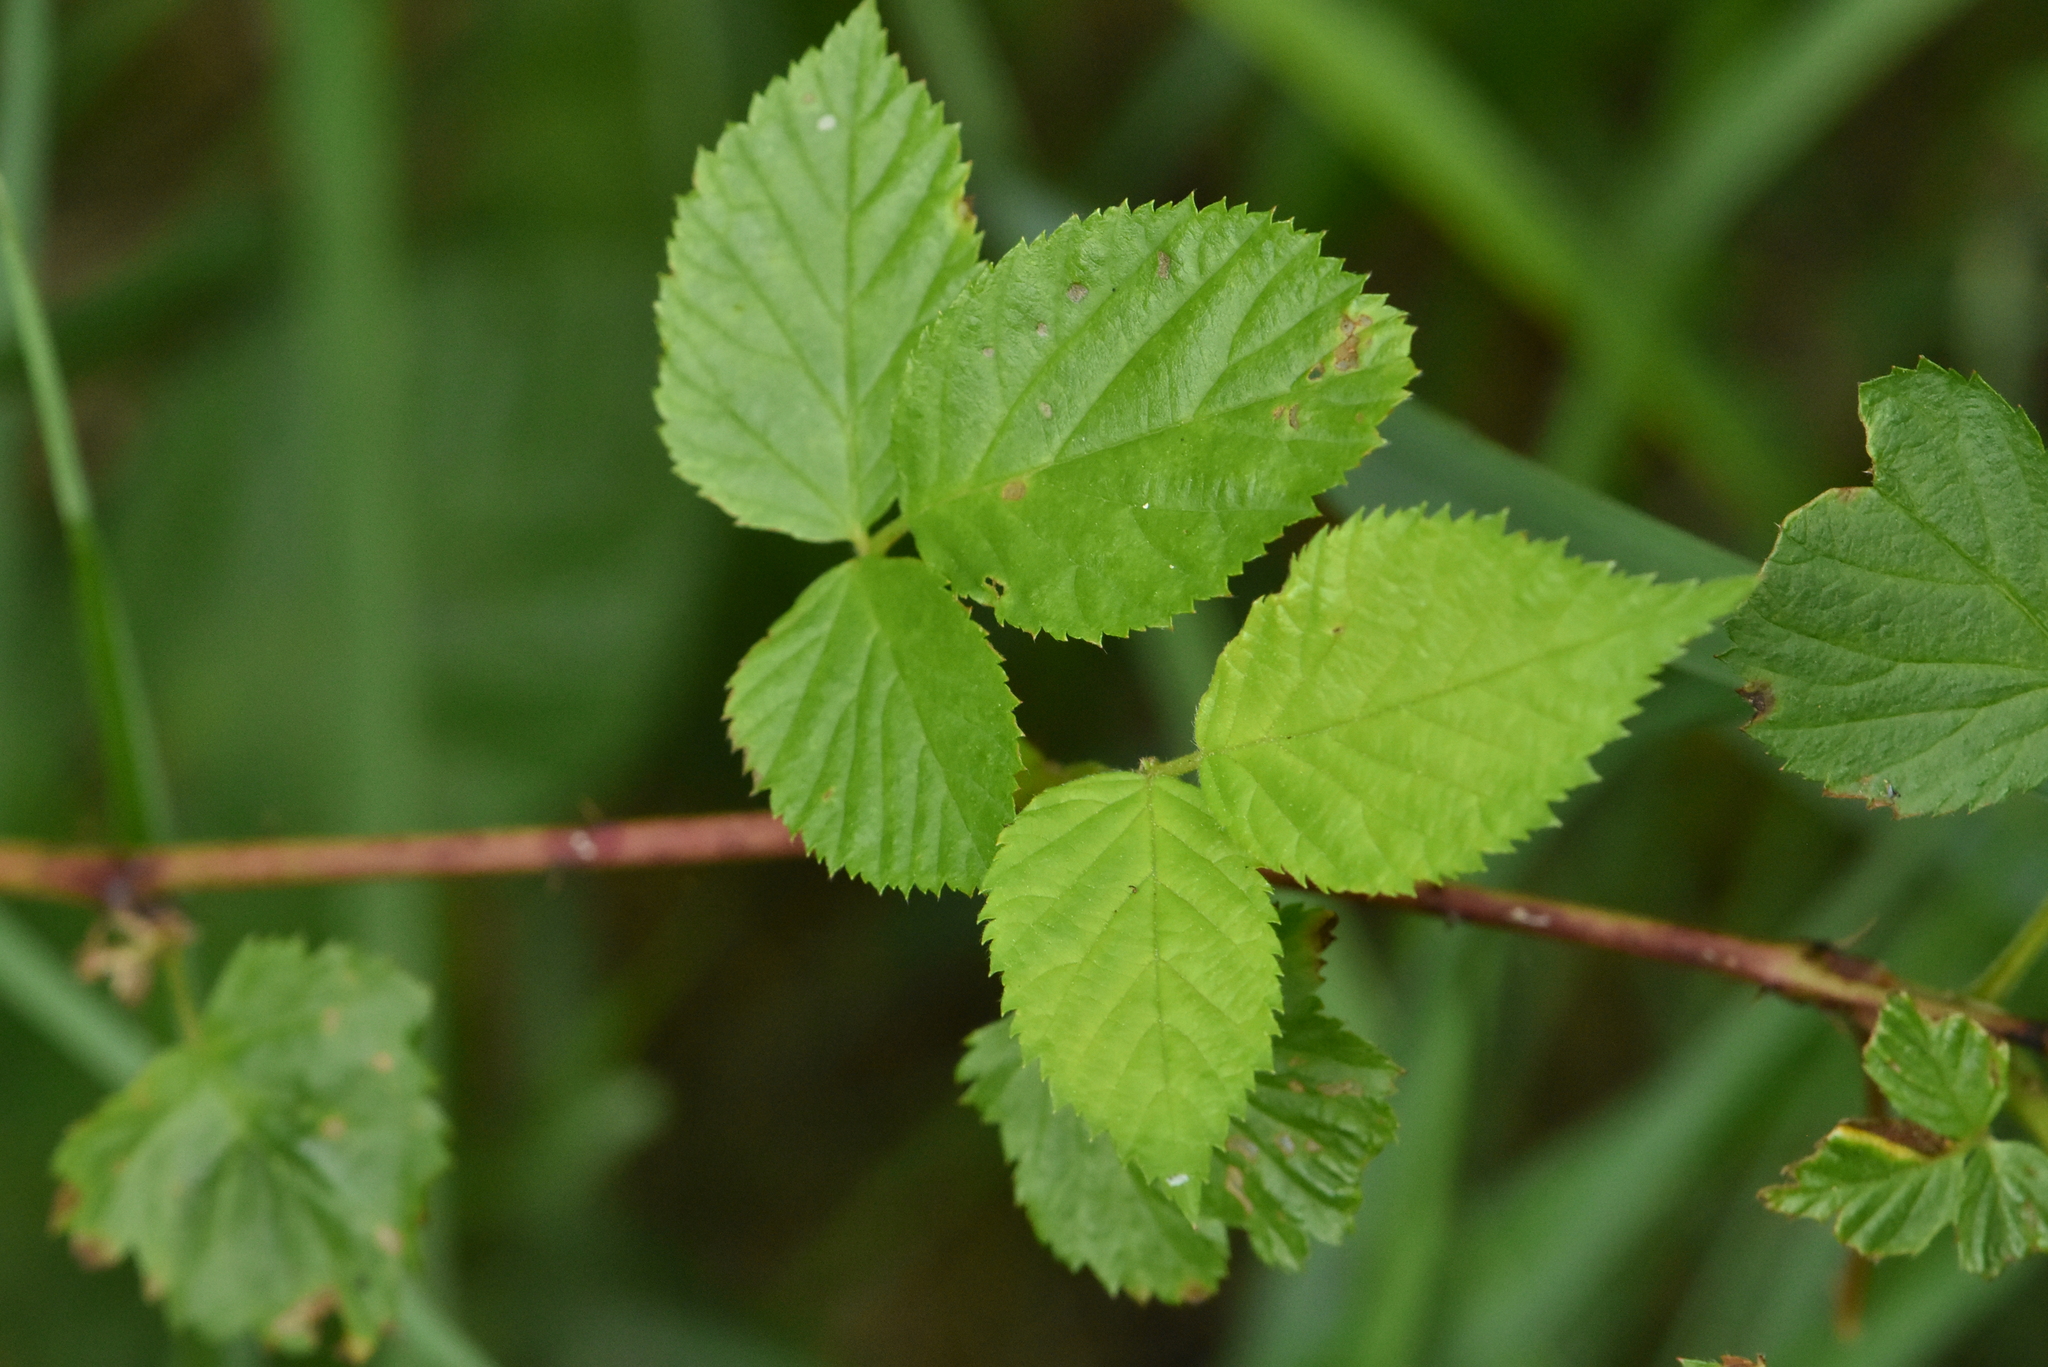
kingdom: Plantae
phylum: Tracheophyta
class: Magnoliopsida
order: Rosales
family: Rosaceae
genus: Rubus
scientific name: Rubus caesius
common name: Dewberry
